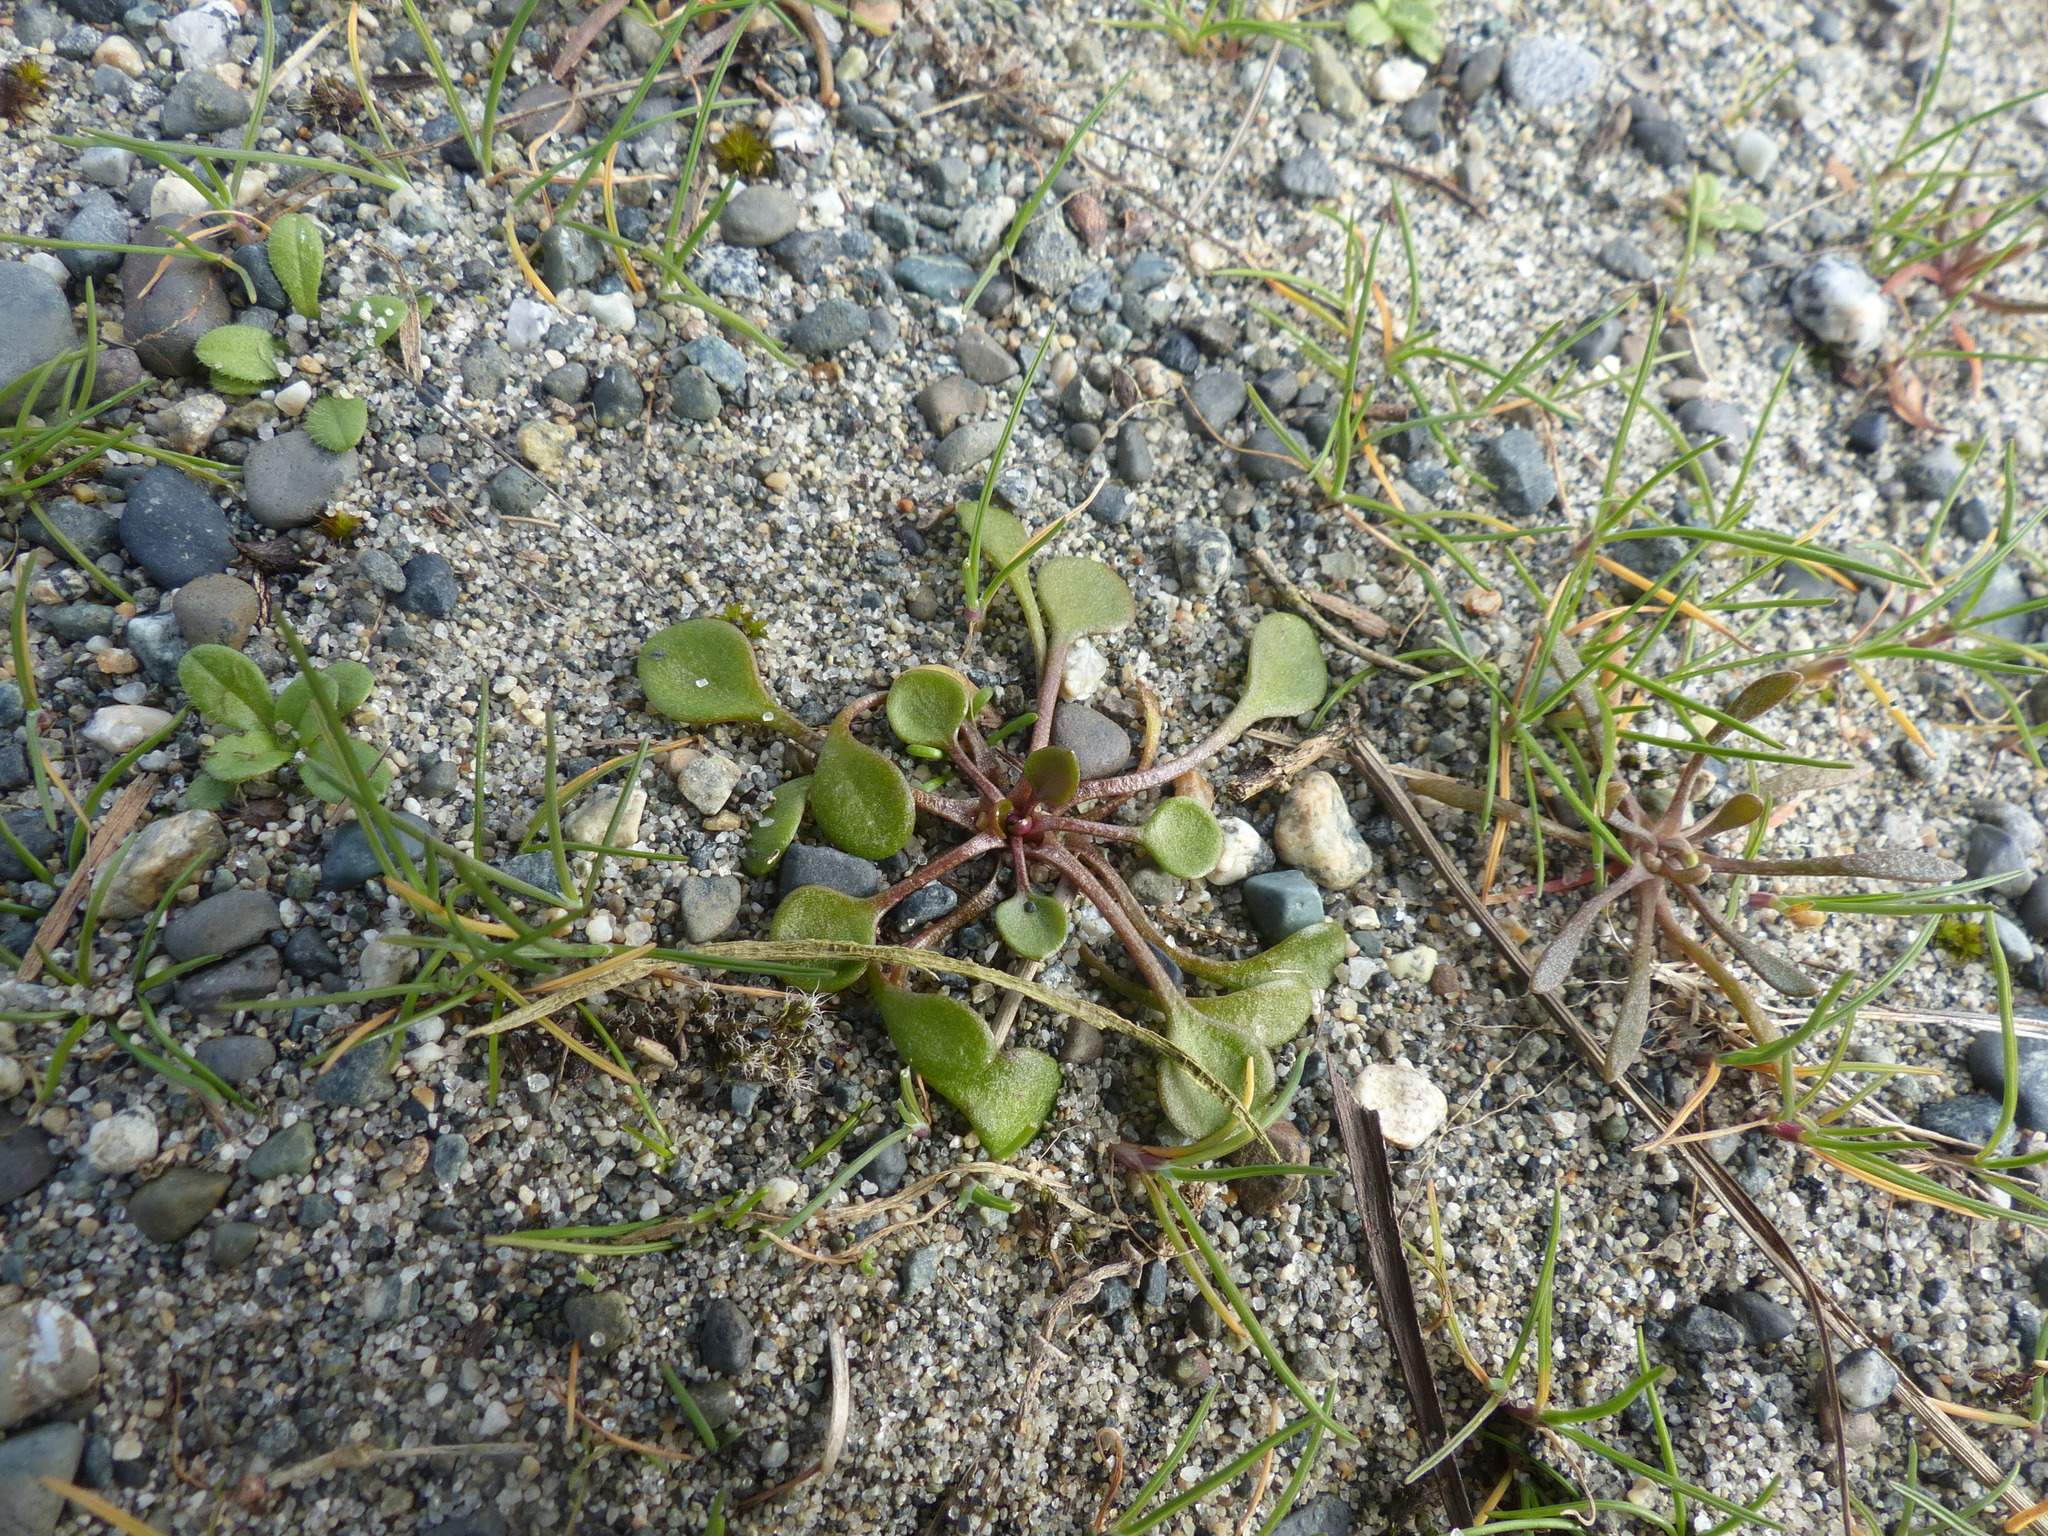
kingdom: Plantae
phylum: Tracheophyta
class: Magnoliopsida
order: Caryophyllales
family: Montiaceae
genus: Claytonia
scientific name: Claytonia rubra
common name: Erubescent miner's-lettuce
